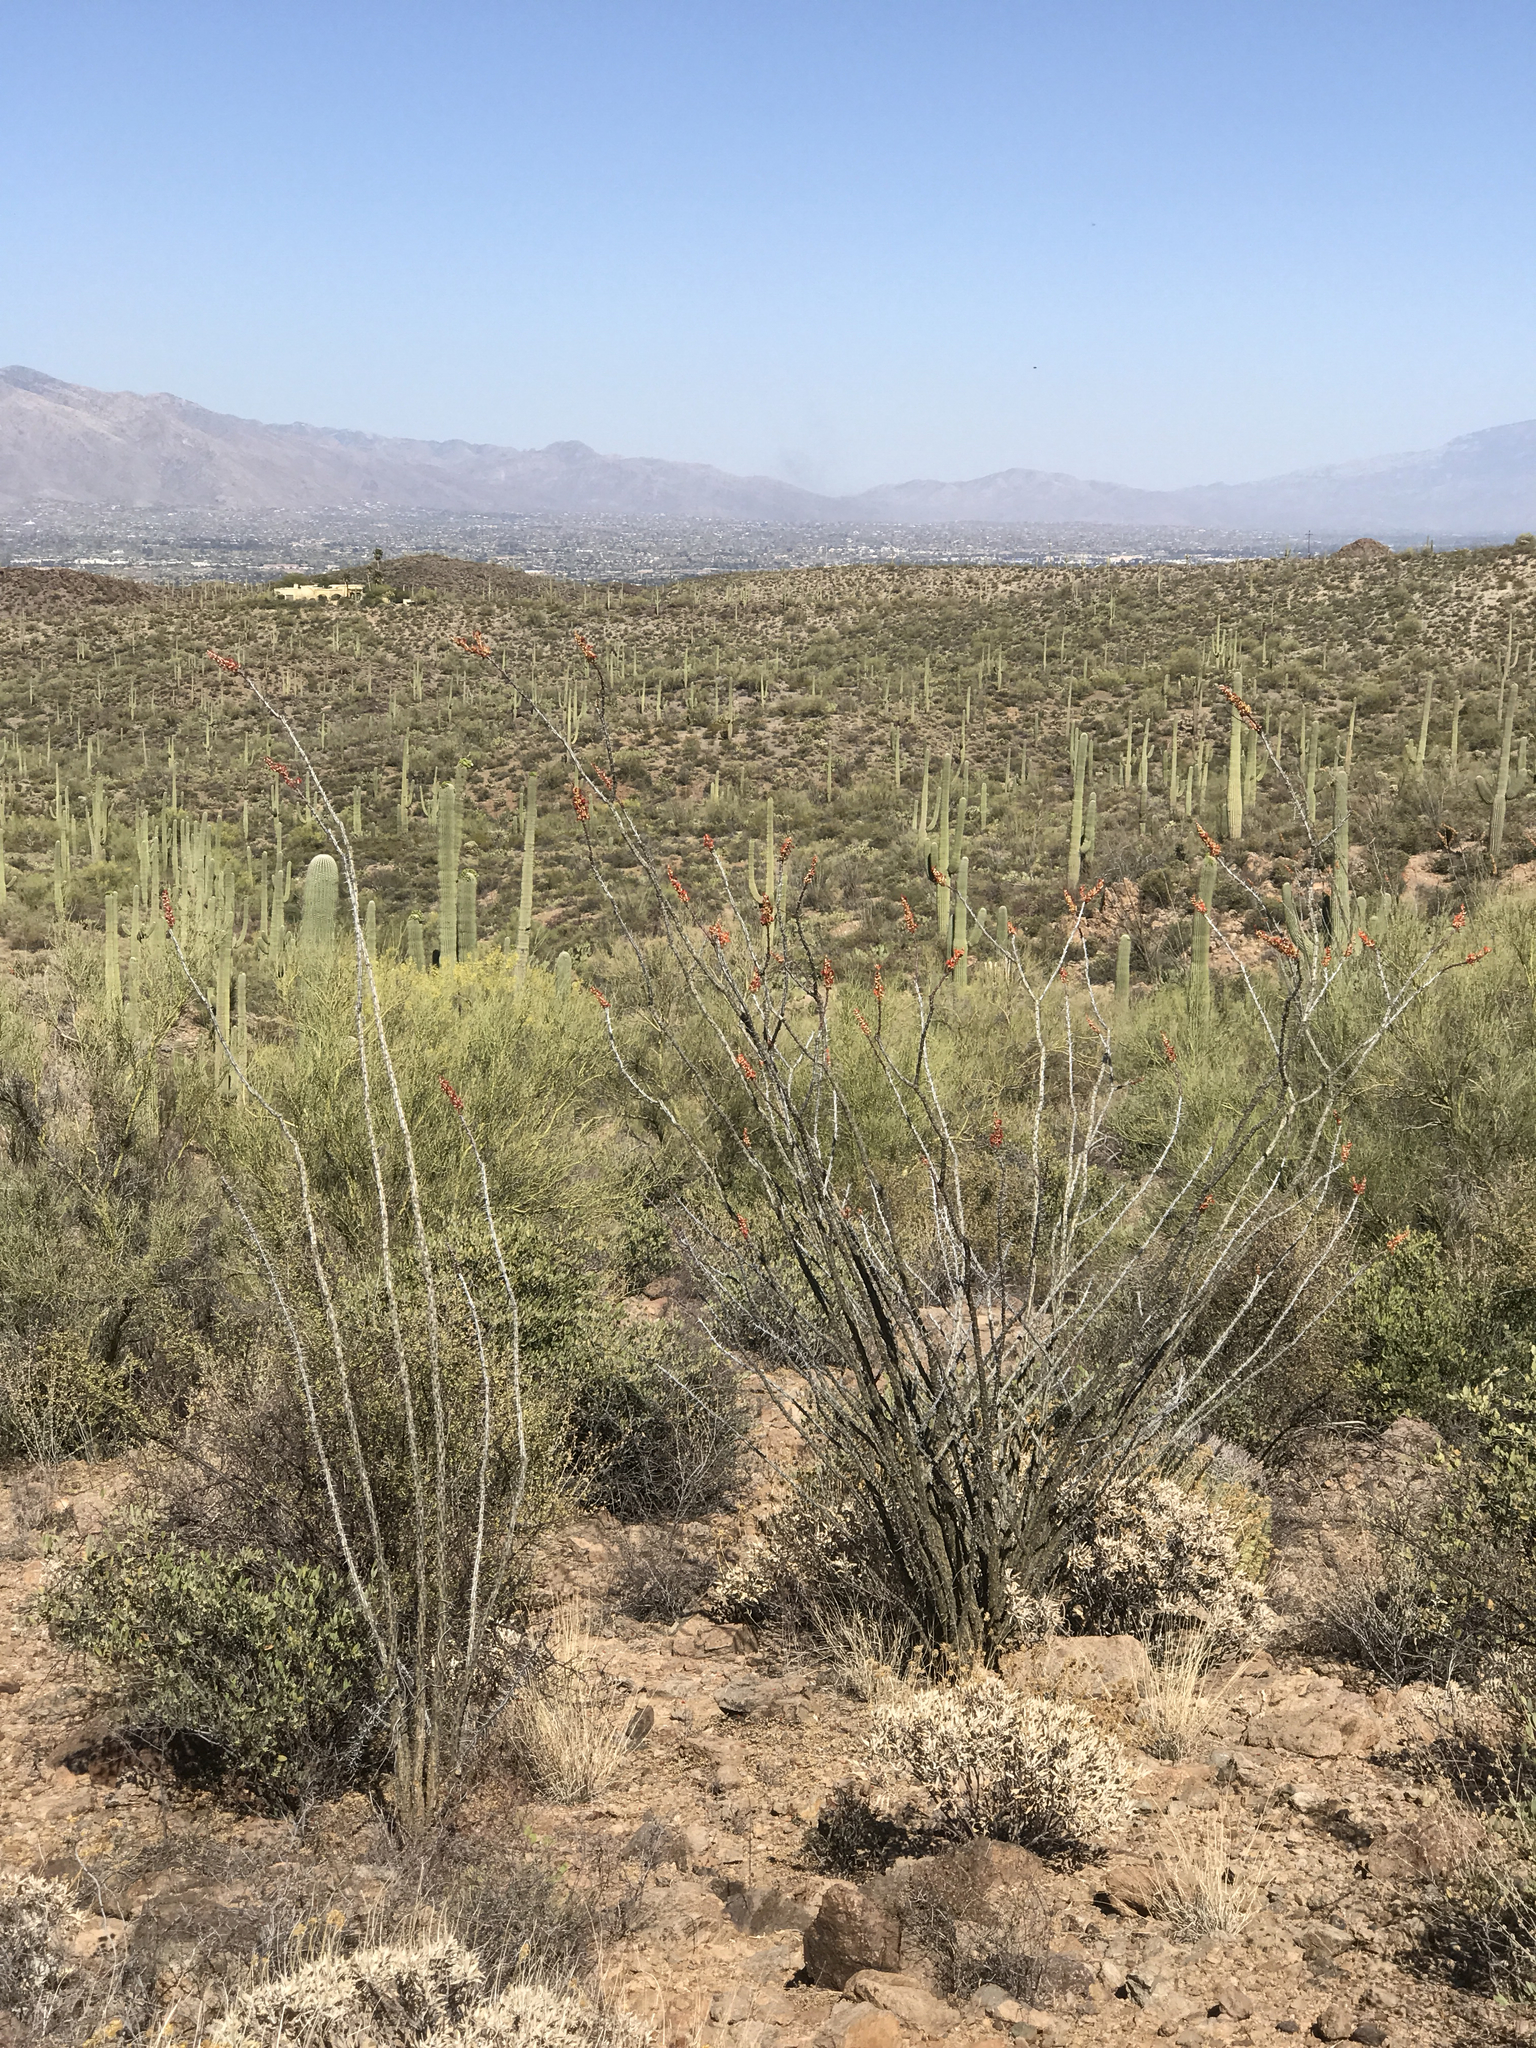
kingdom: Plantae
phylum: Tracheophyta
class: Magnoliopsida
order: Ericales
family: Fouquieriaceae
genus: Fouquieria
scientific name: Fouquieria splendens
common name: Vine-cactus
